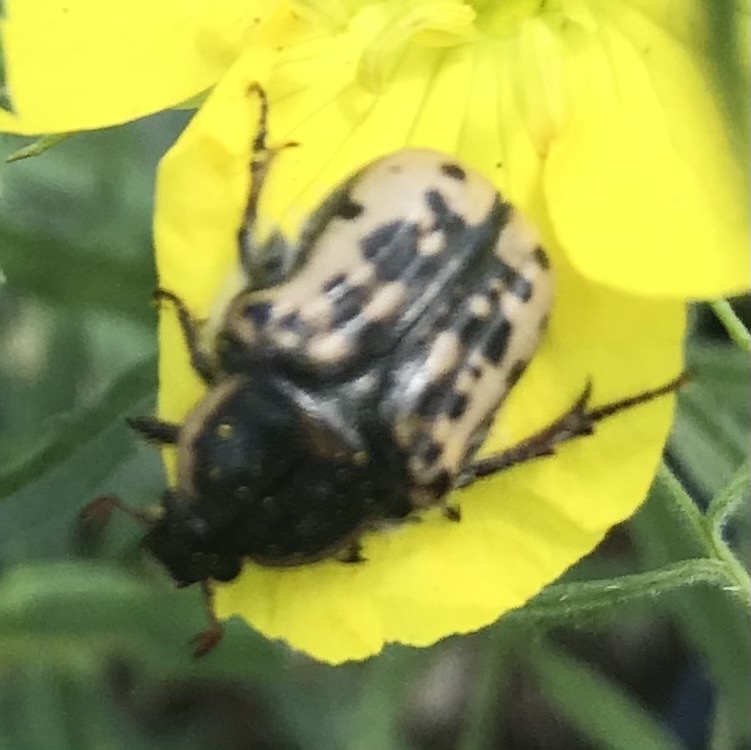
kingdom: Animalia
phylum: Arthropoda
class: Insecta
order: Coleoptera
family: Scarabaeidae
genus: Euphoria
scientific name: Euphoria kernii
